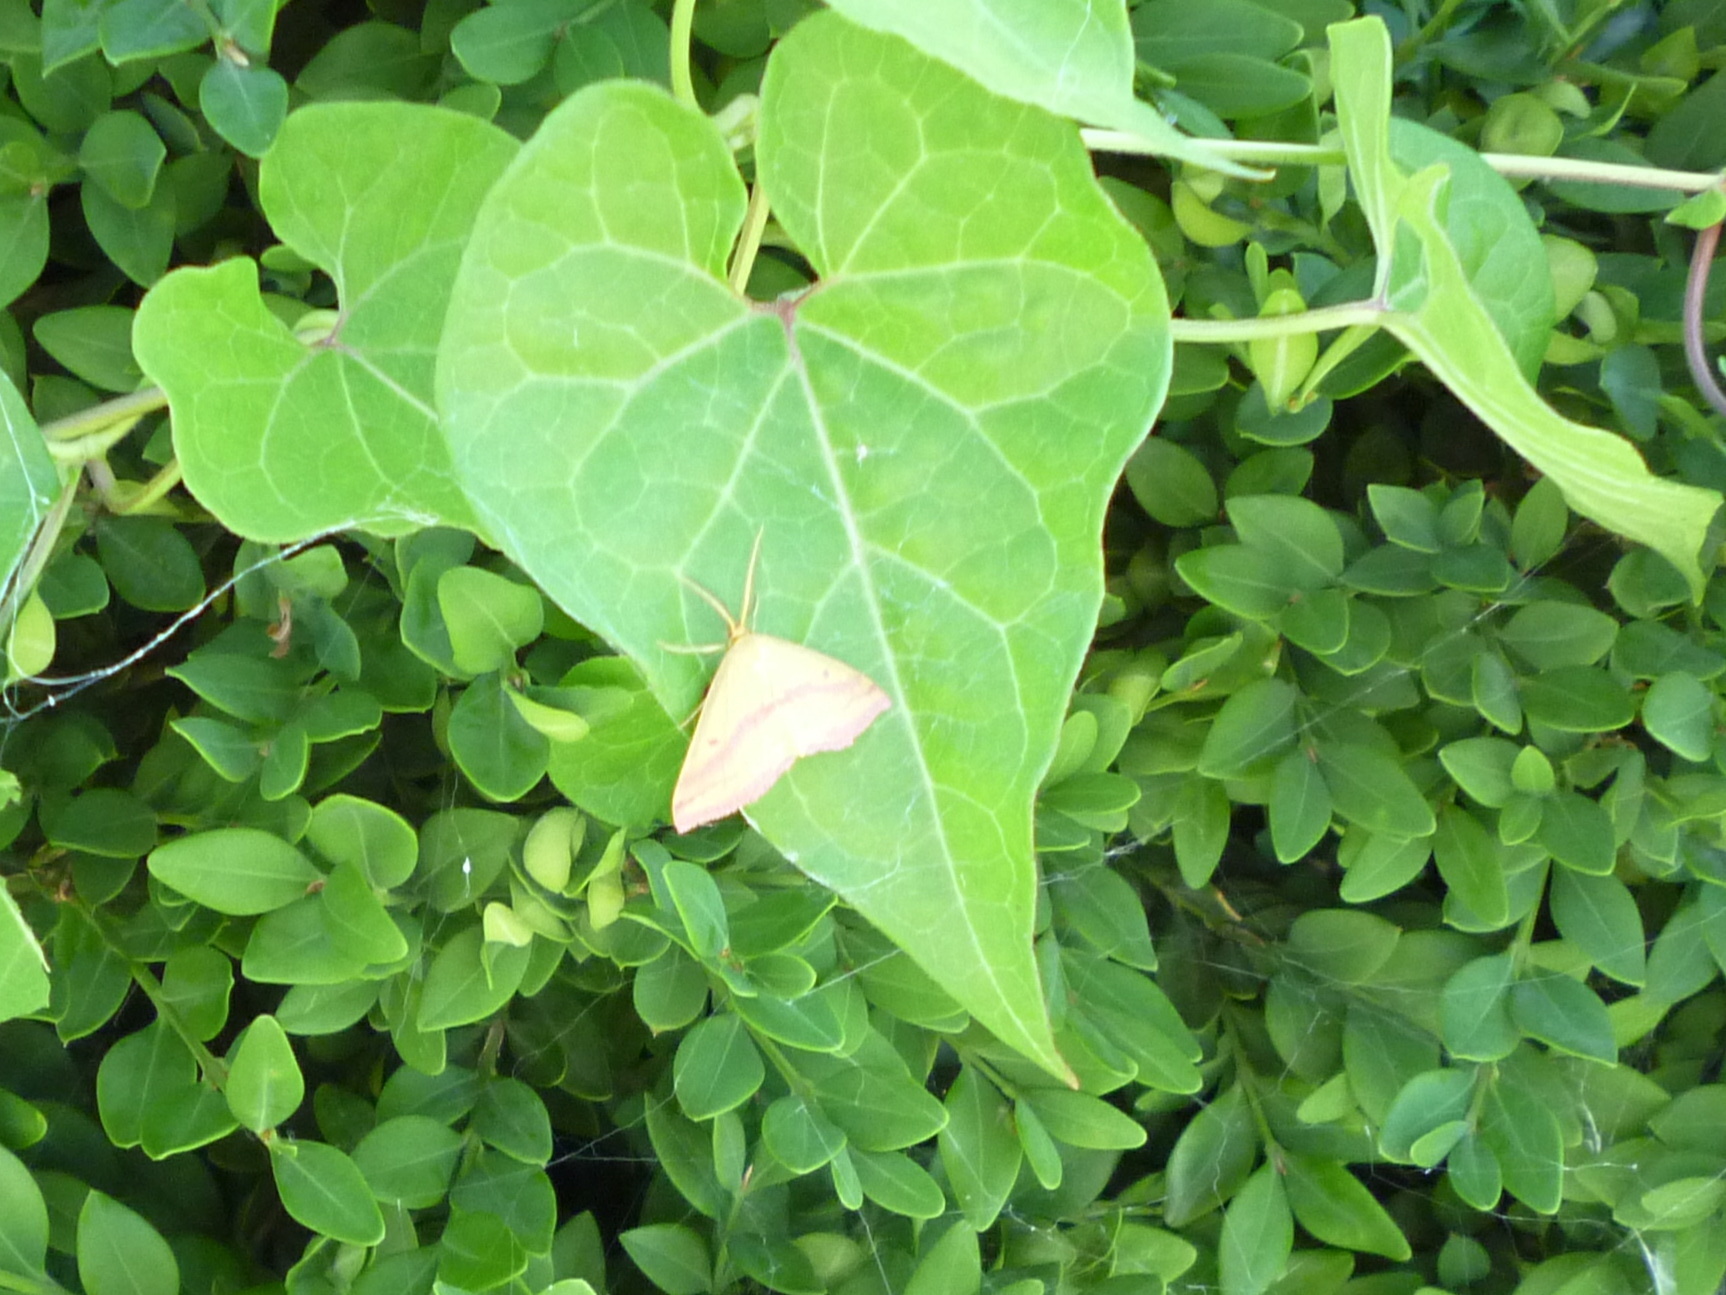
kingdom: Animalia
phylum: Arthropoda
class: Insecta
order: Lepidoptera
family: Geometridae
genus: Haematopis
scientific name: Haematopis grataria
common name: Chickweed geometer
